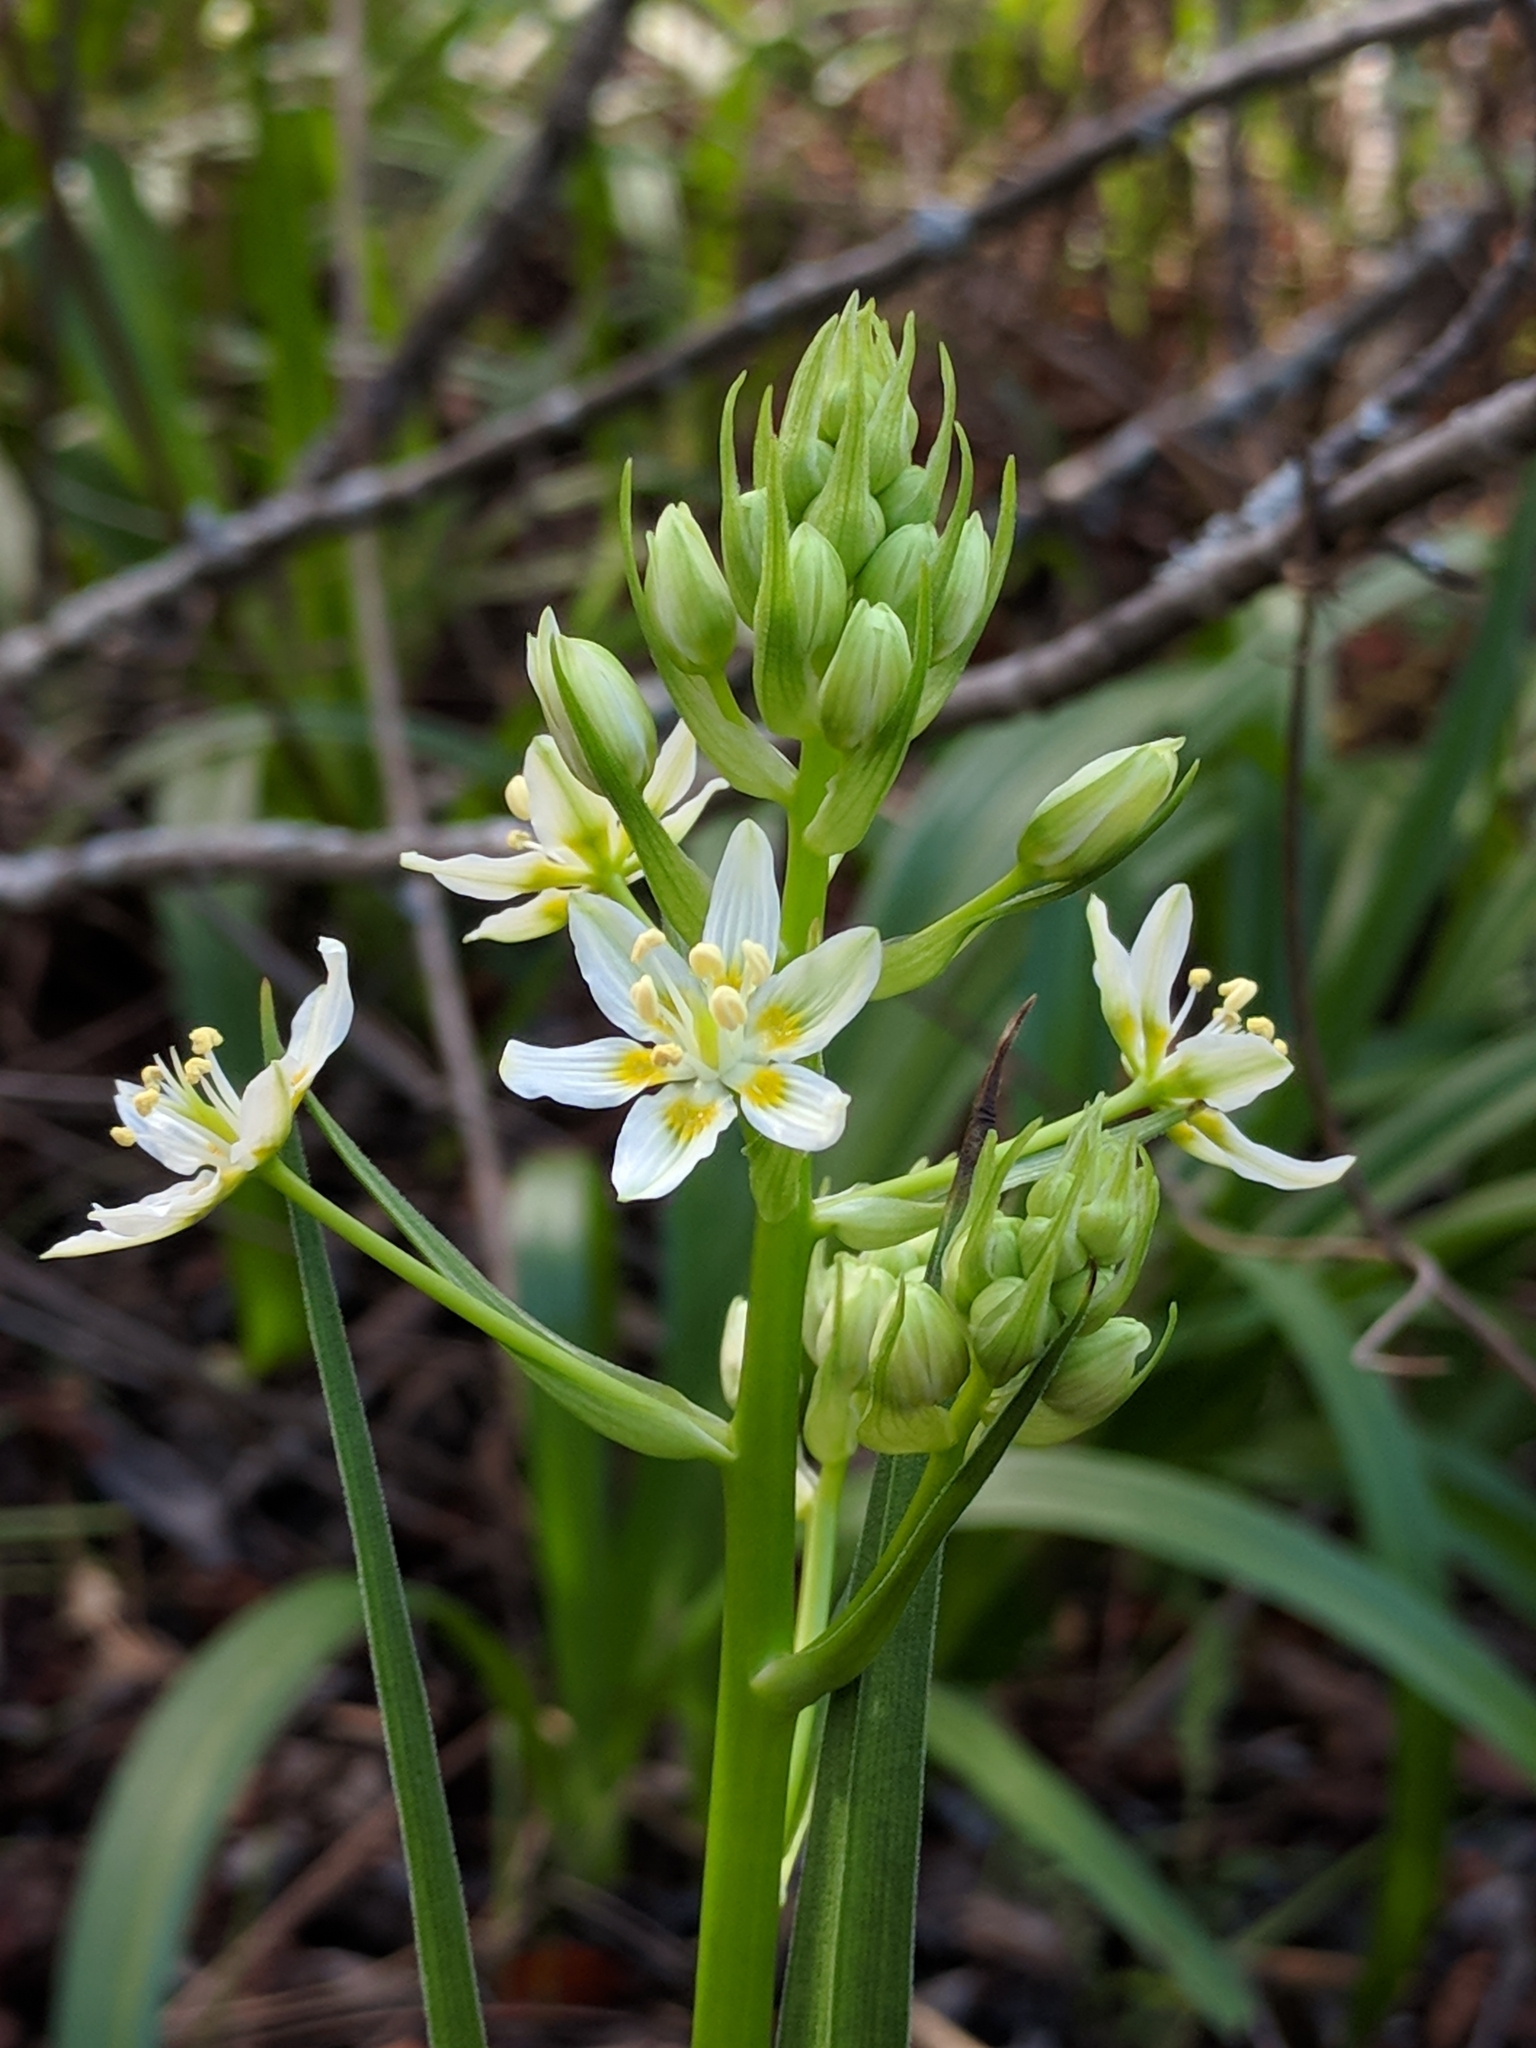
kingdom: Plantae
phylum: Tracheophyta
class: Liliopsida
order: Liliales
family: Melanthiaceae
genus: Toxicoscordion
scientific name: Toxicoscordion fremontii
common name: Fremont's death camas
